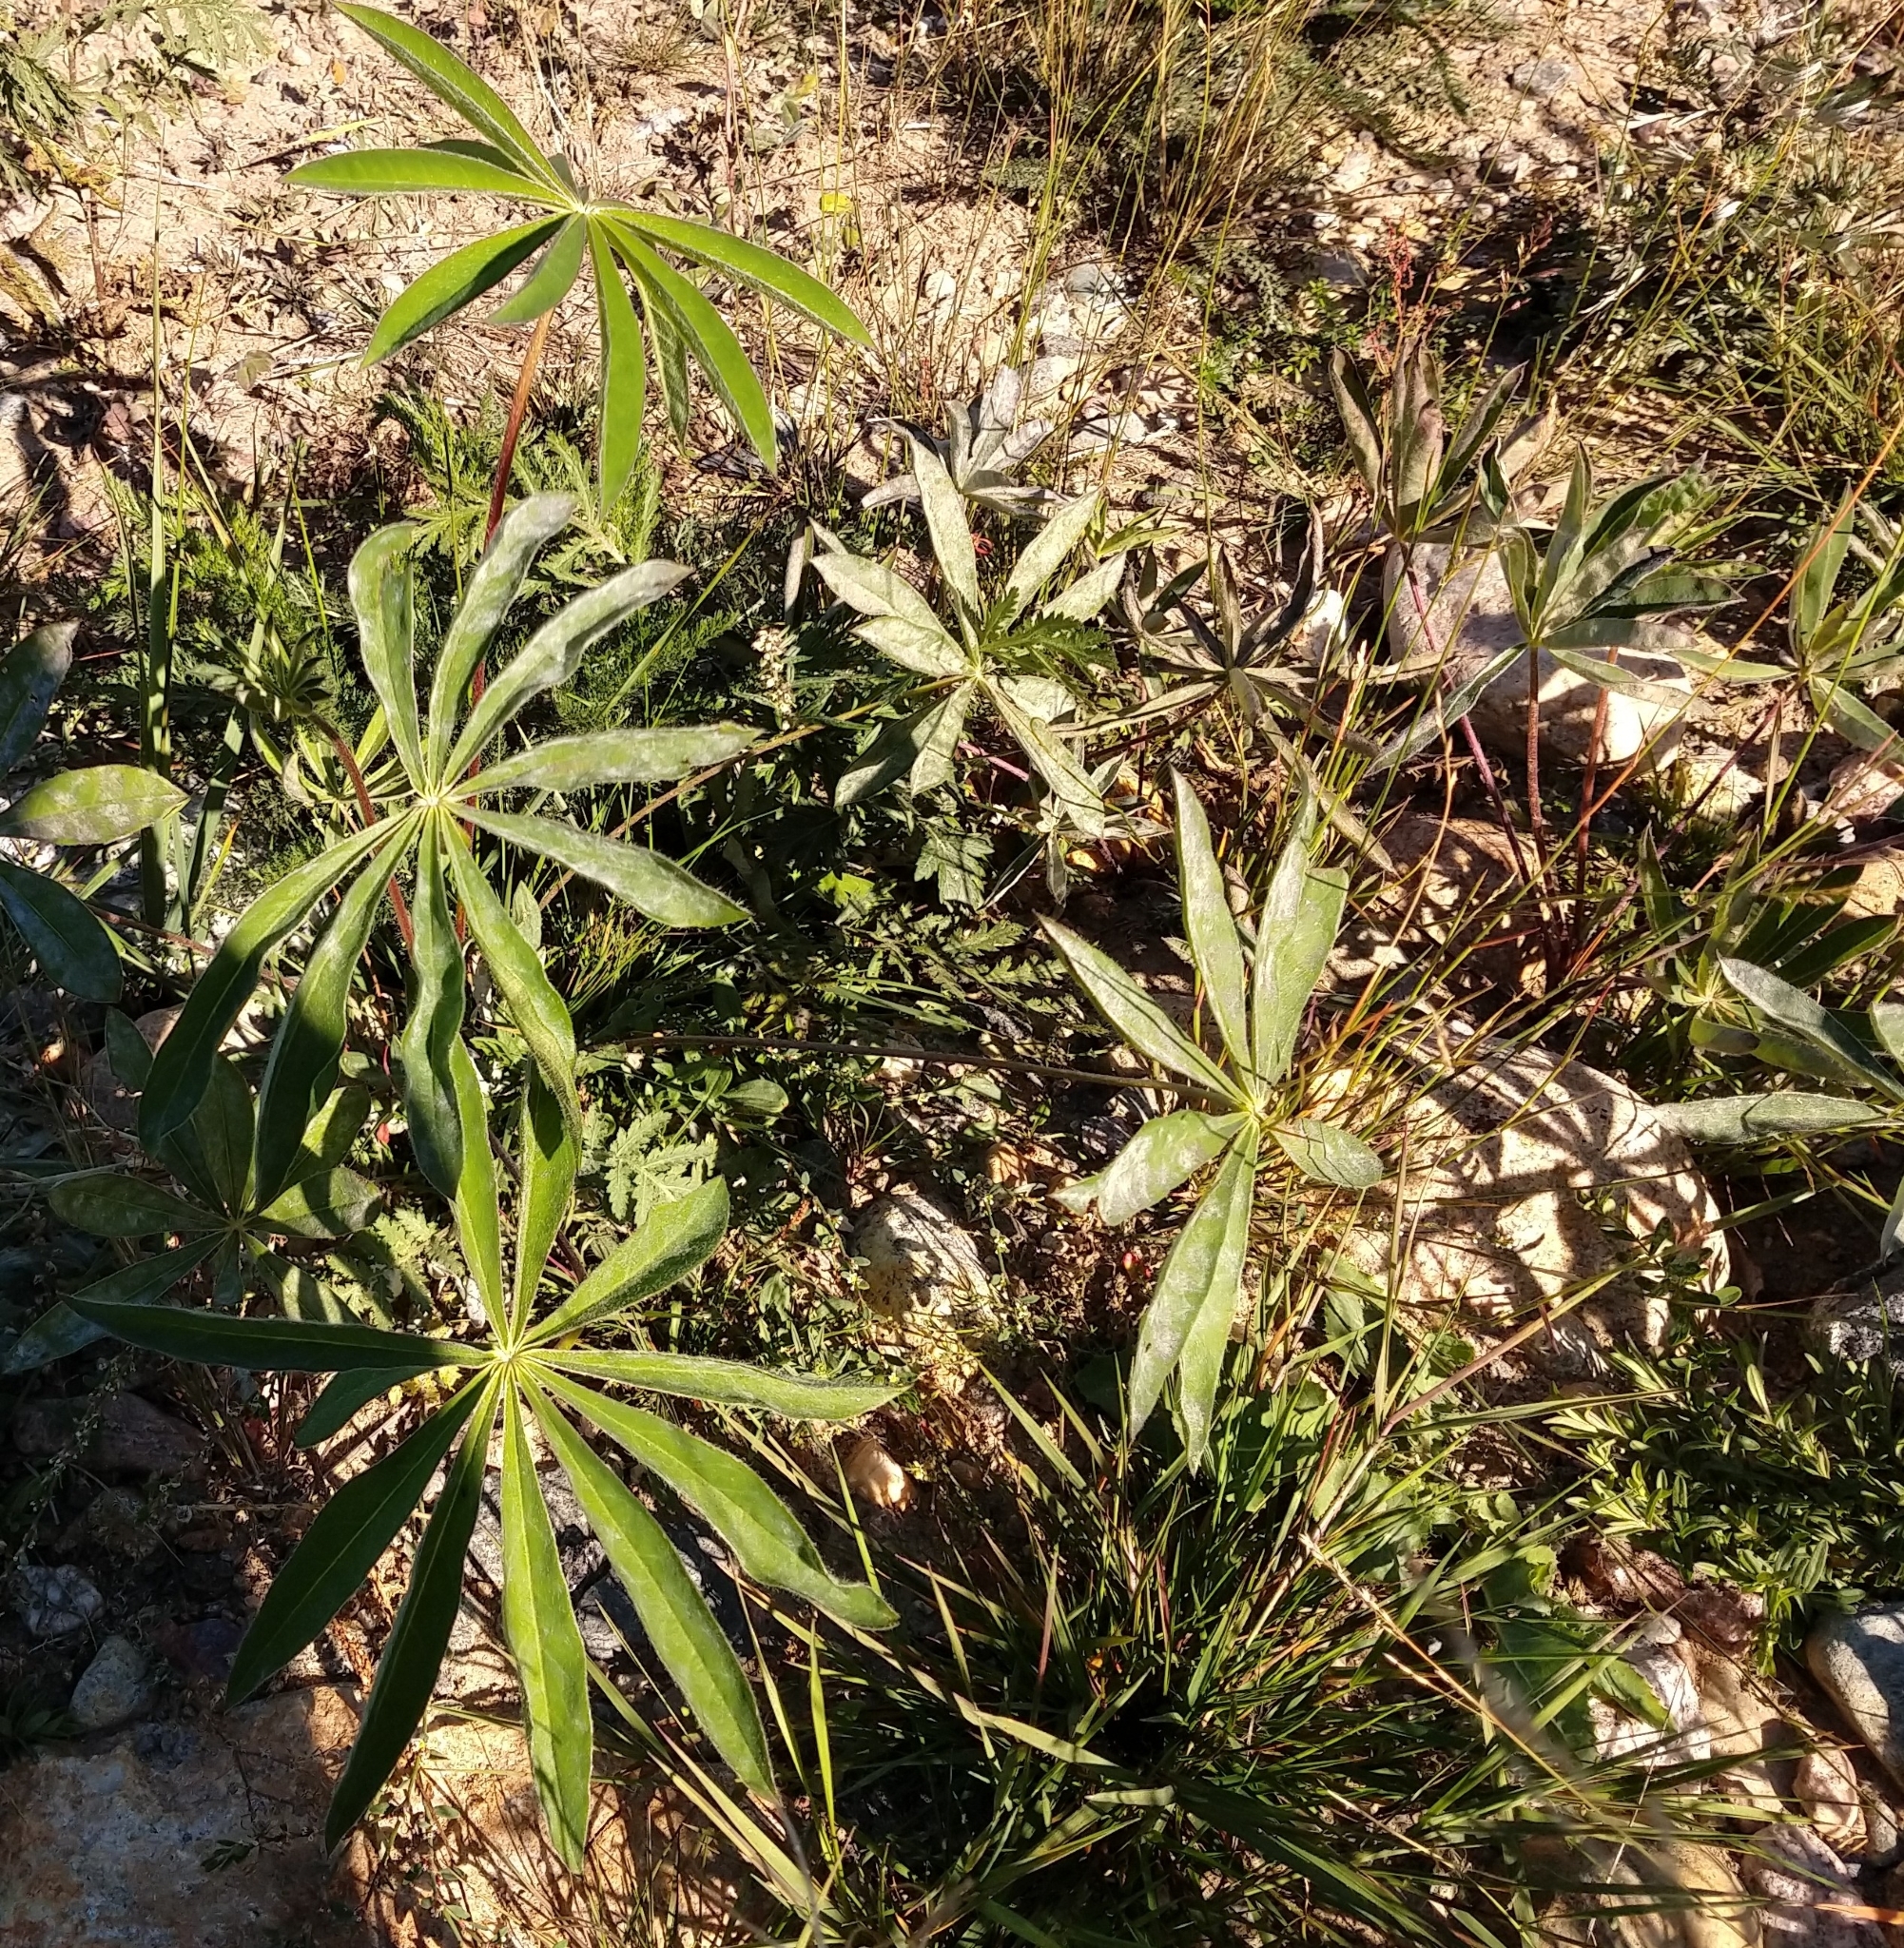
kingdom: Plantae
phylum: Tracheophyta
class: Magnoliopsida
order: Fabales
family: Fabaceae
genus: Lupinus
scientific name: Lupinus polyphyllus
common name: Garden lupin
